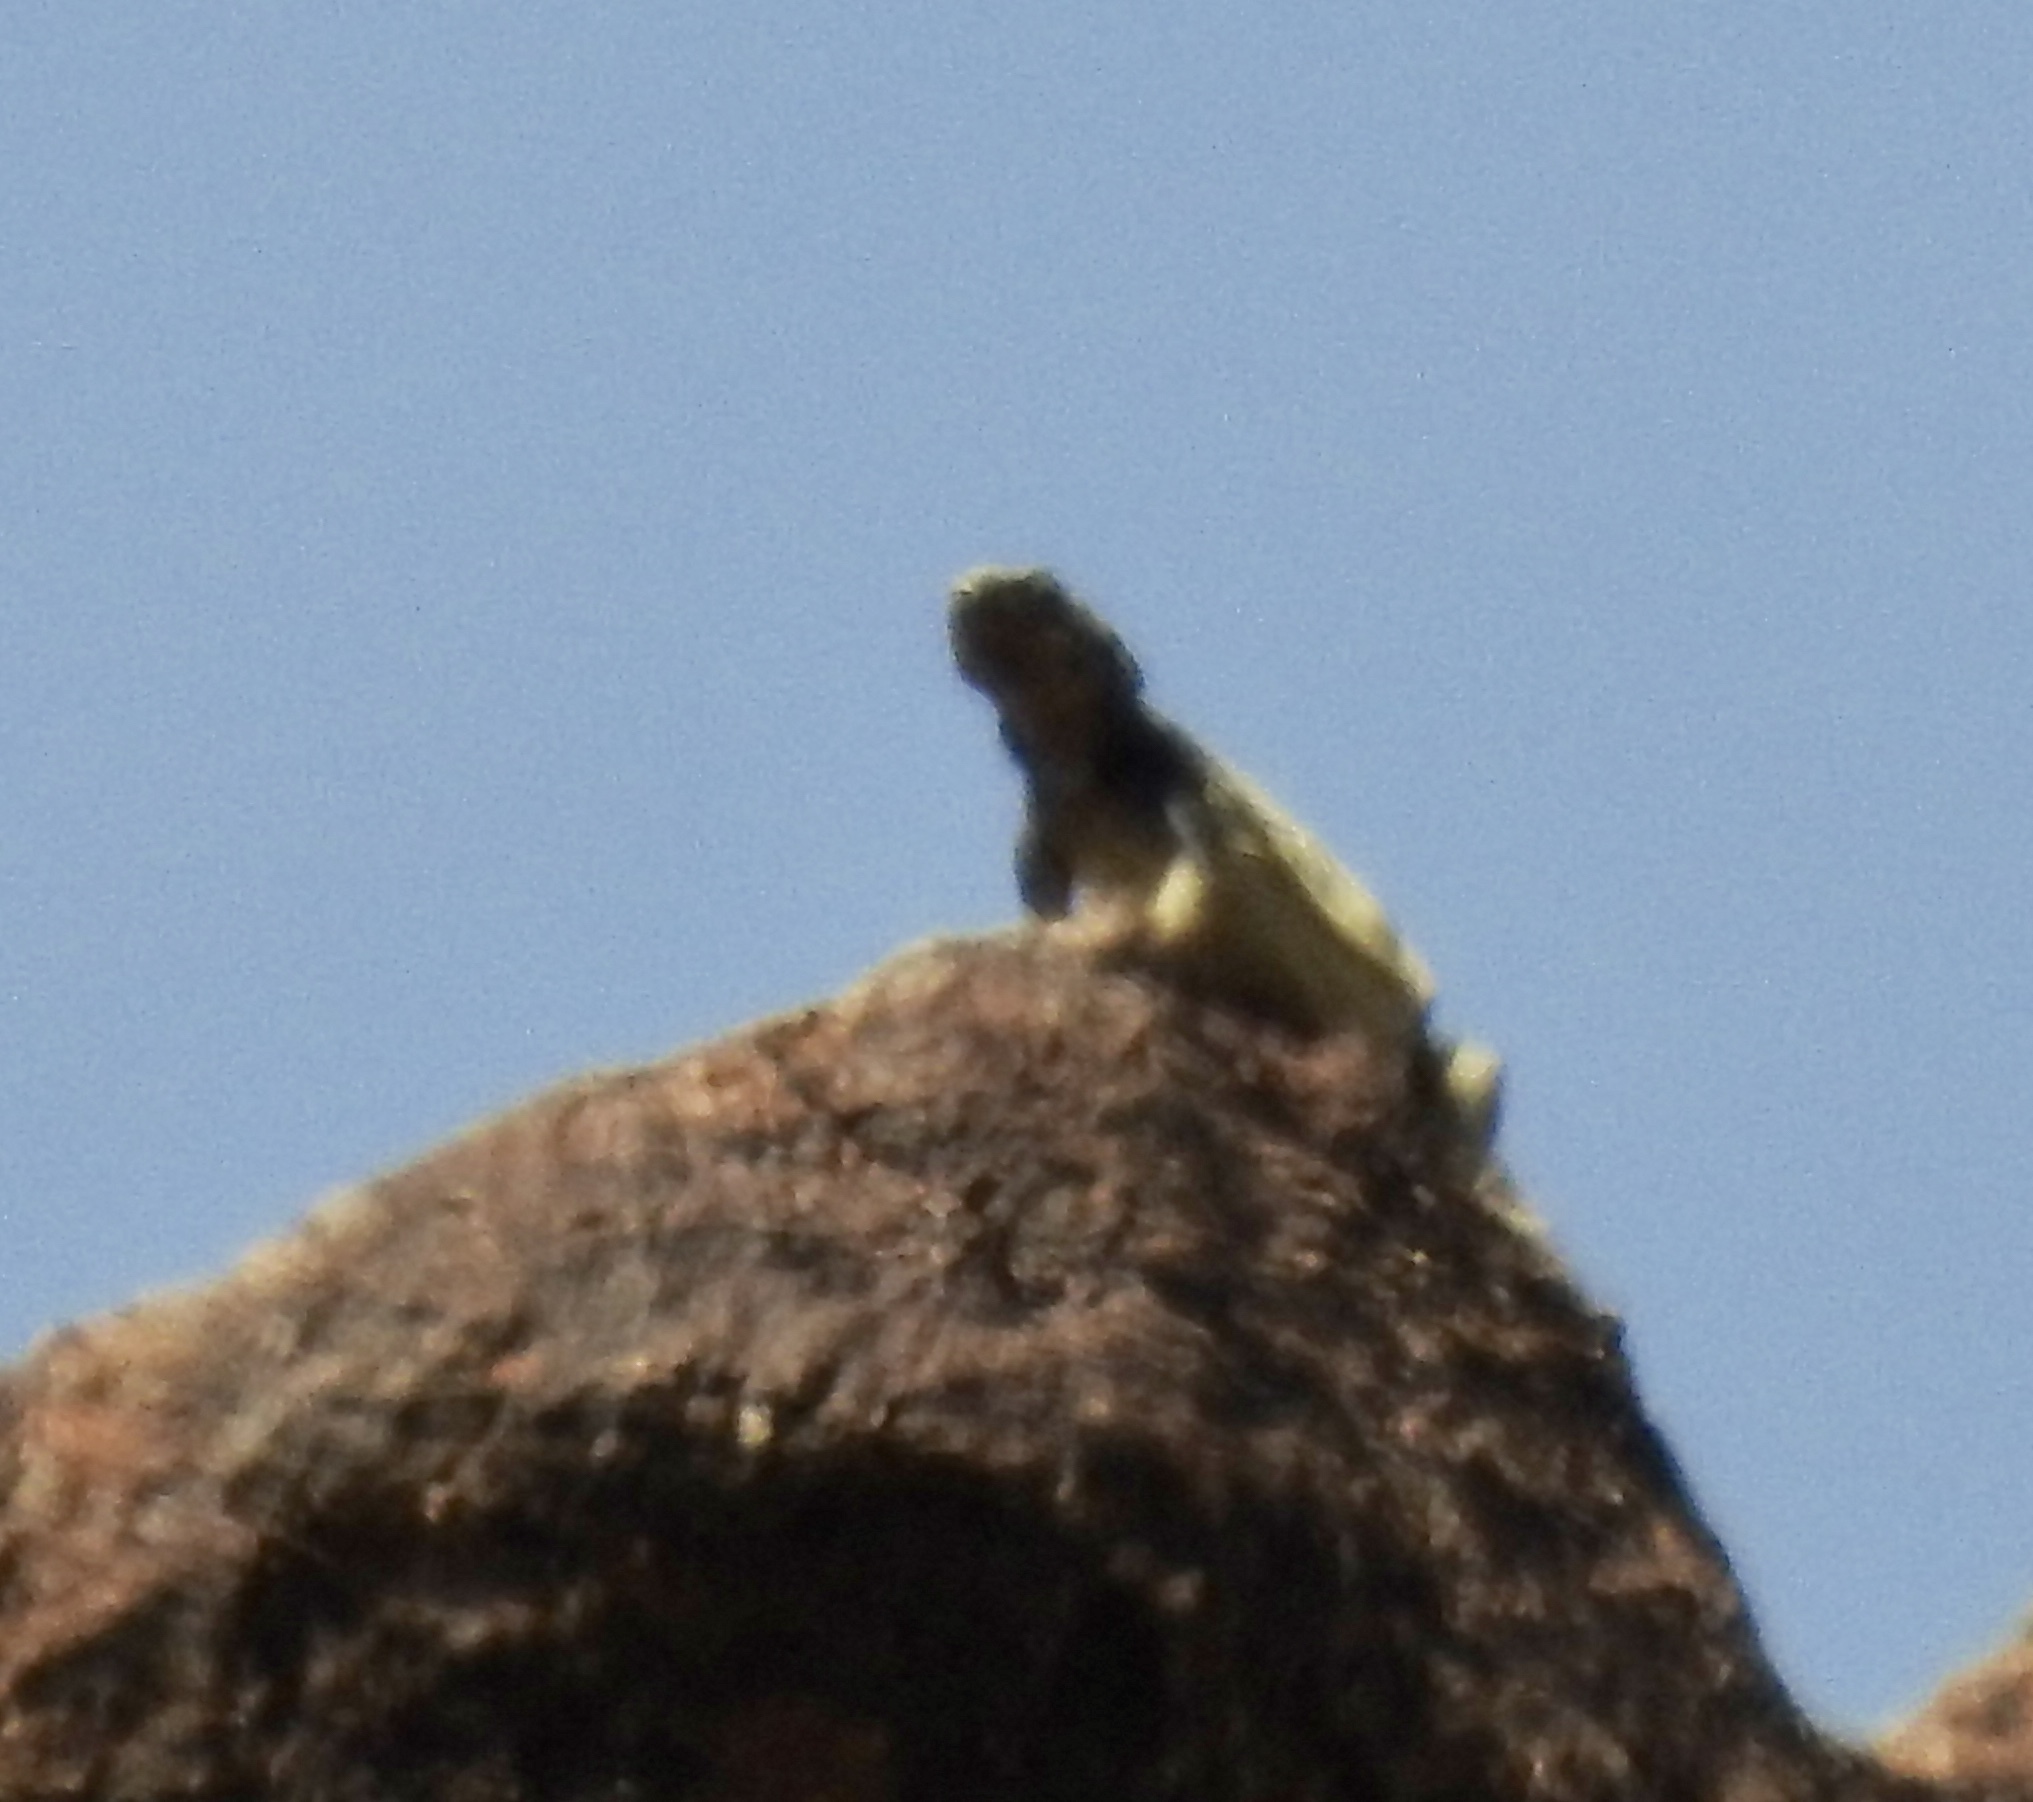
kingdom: Animalia
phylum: Chordata
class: Squamata
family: Iguanidae
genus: Sauromalus
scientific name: Sauromalus ater
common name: Northern chuckwalla
